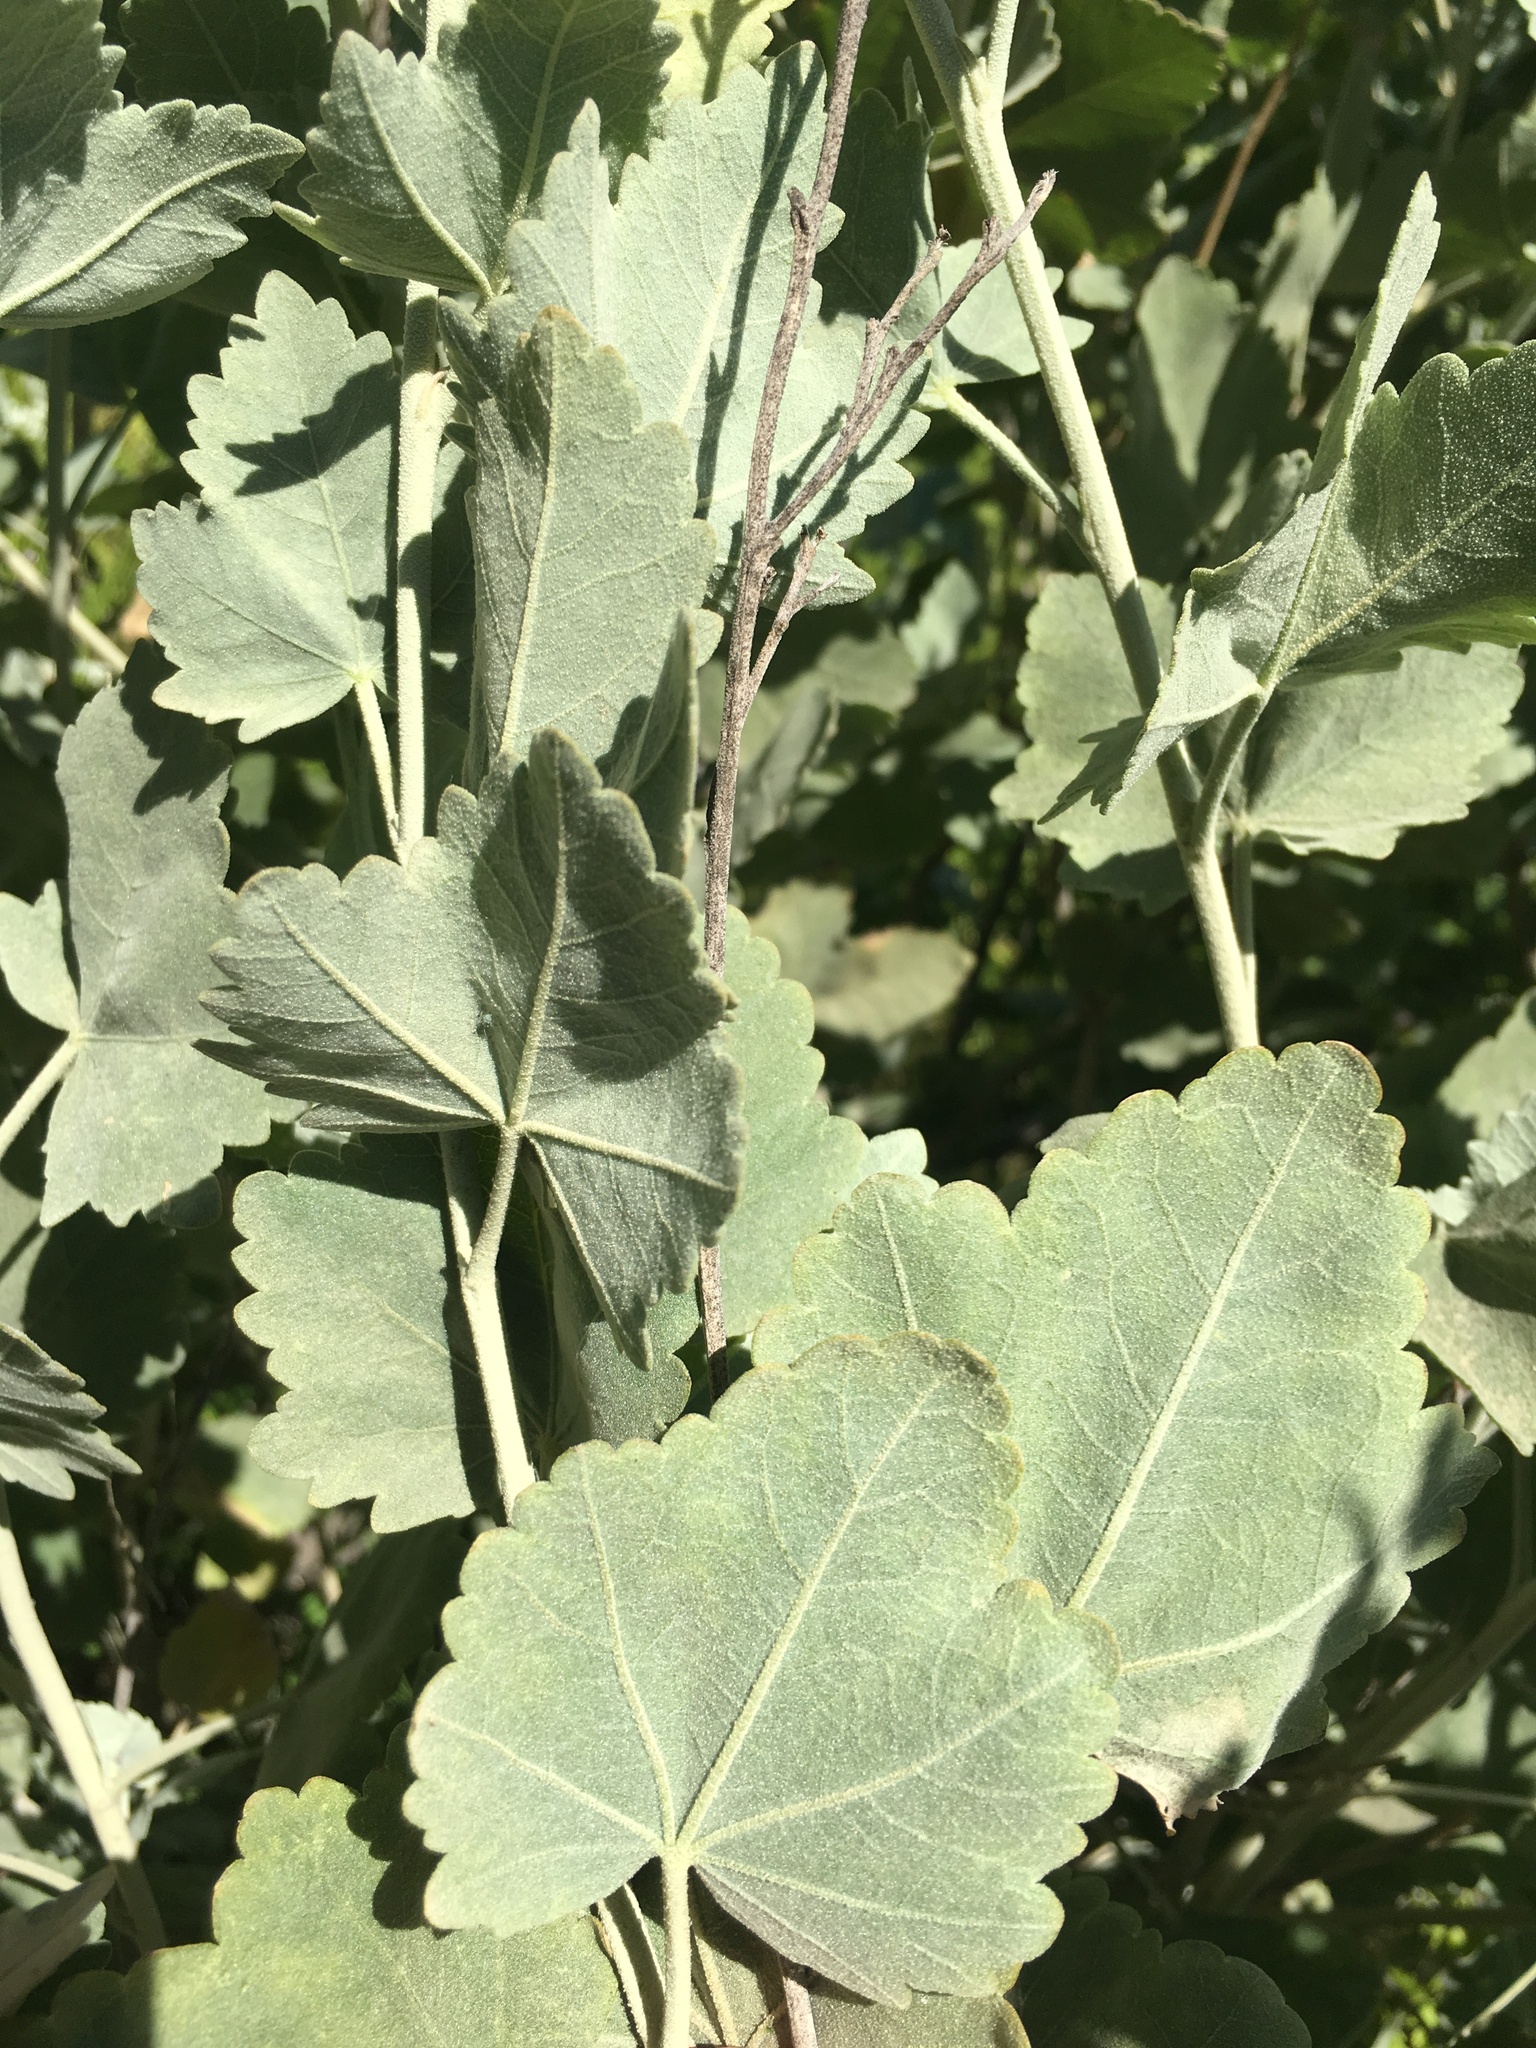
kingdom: Plantae
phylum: Tracheophyta
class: Magnoliopsida
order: Malvales
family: Malvaceae
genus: Malacothamnus
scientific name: Malacothamnus fasciculatus
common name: Sant cruz island bush-mallow
